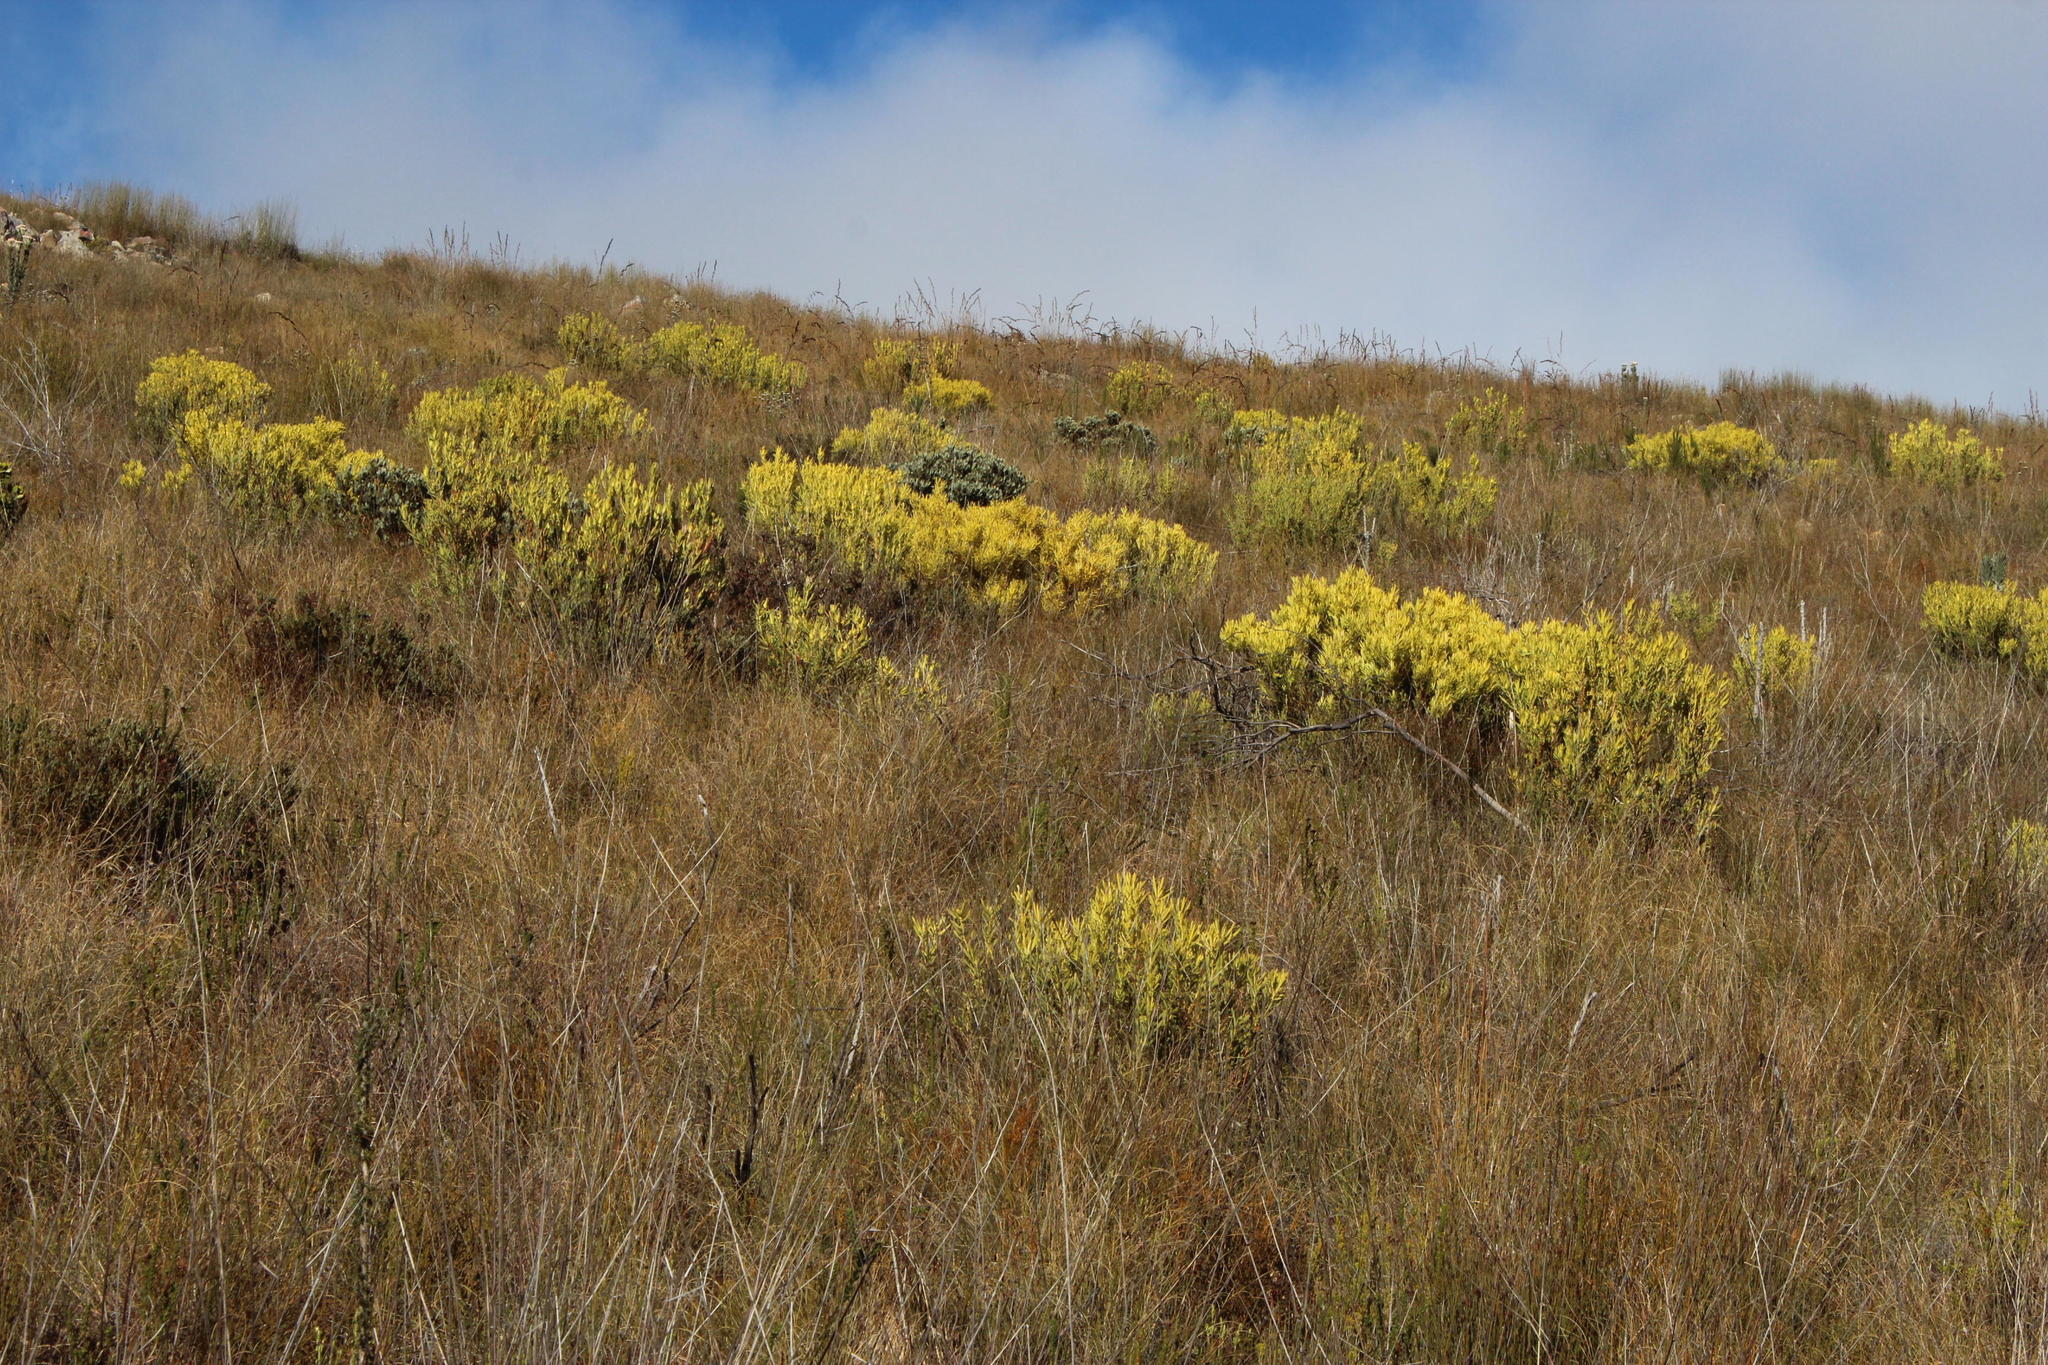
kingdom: Plantae
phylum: Tracheophyta
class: Magnoliopsida
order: Proteales
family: Proteaceae
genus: Leucadendron
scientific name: Leucadendron salignum
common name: Common sunshine conebush
